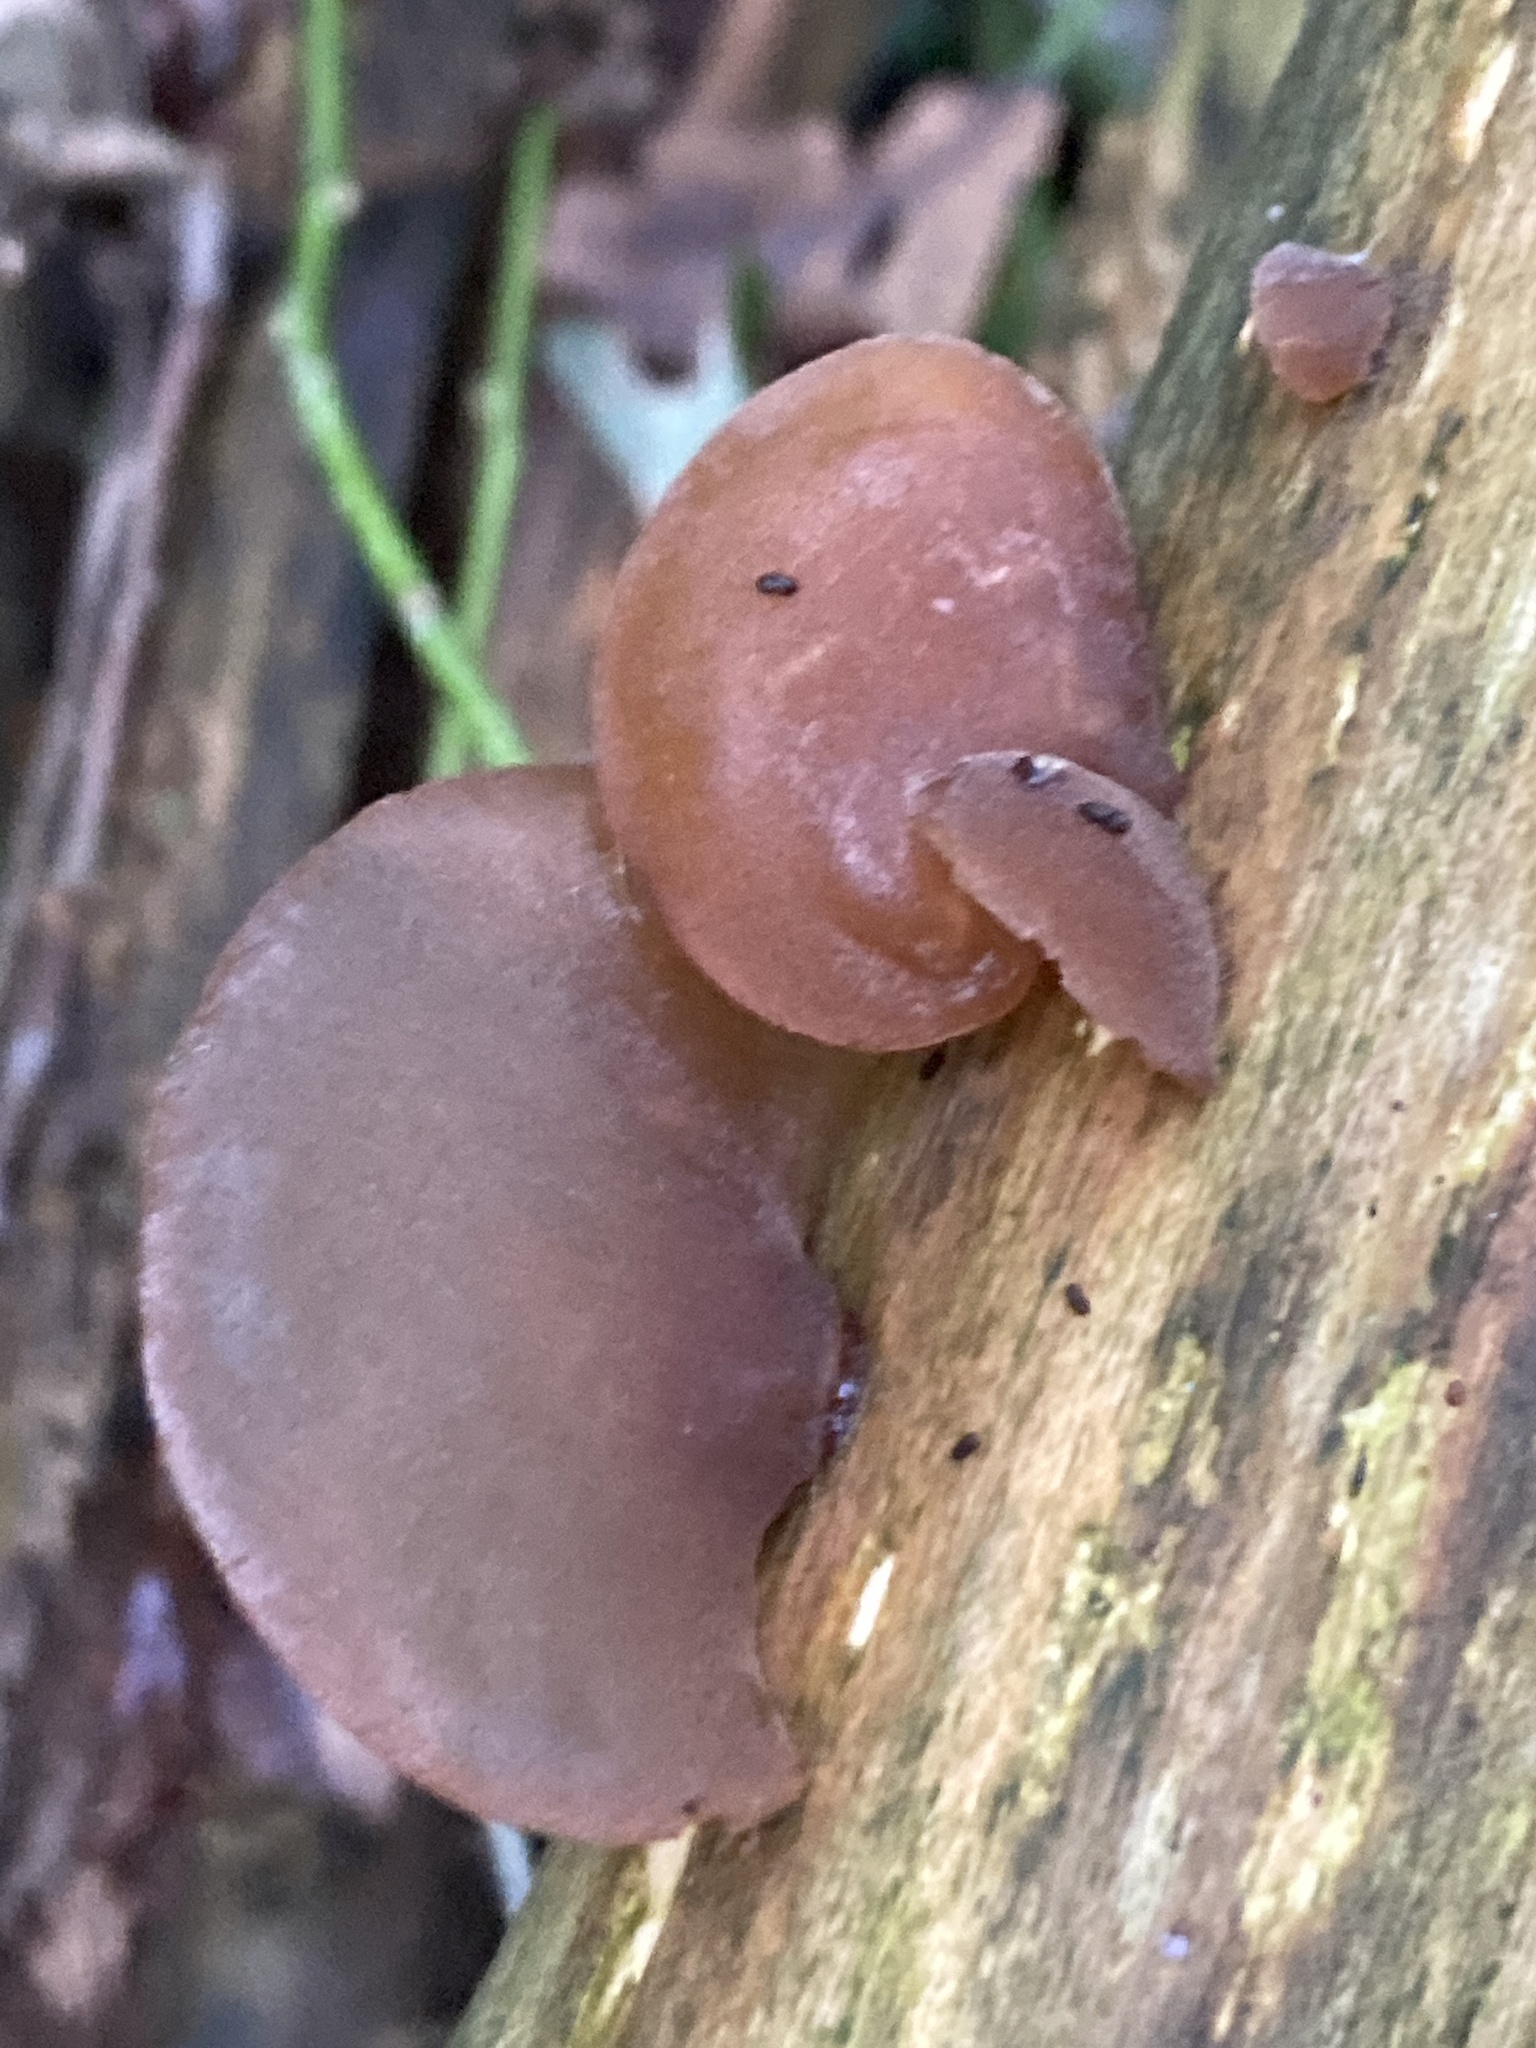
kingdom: Fungi
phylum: Basidiomycota
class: Agaricomycetes
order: Auriculariales
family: Auriculariaceae
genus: Auricularia
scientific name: Auricularia auricula-judae
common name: Jelly ear
